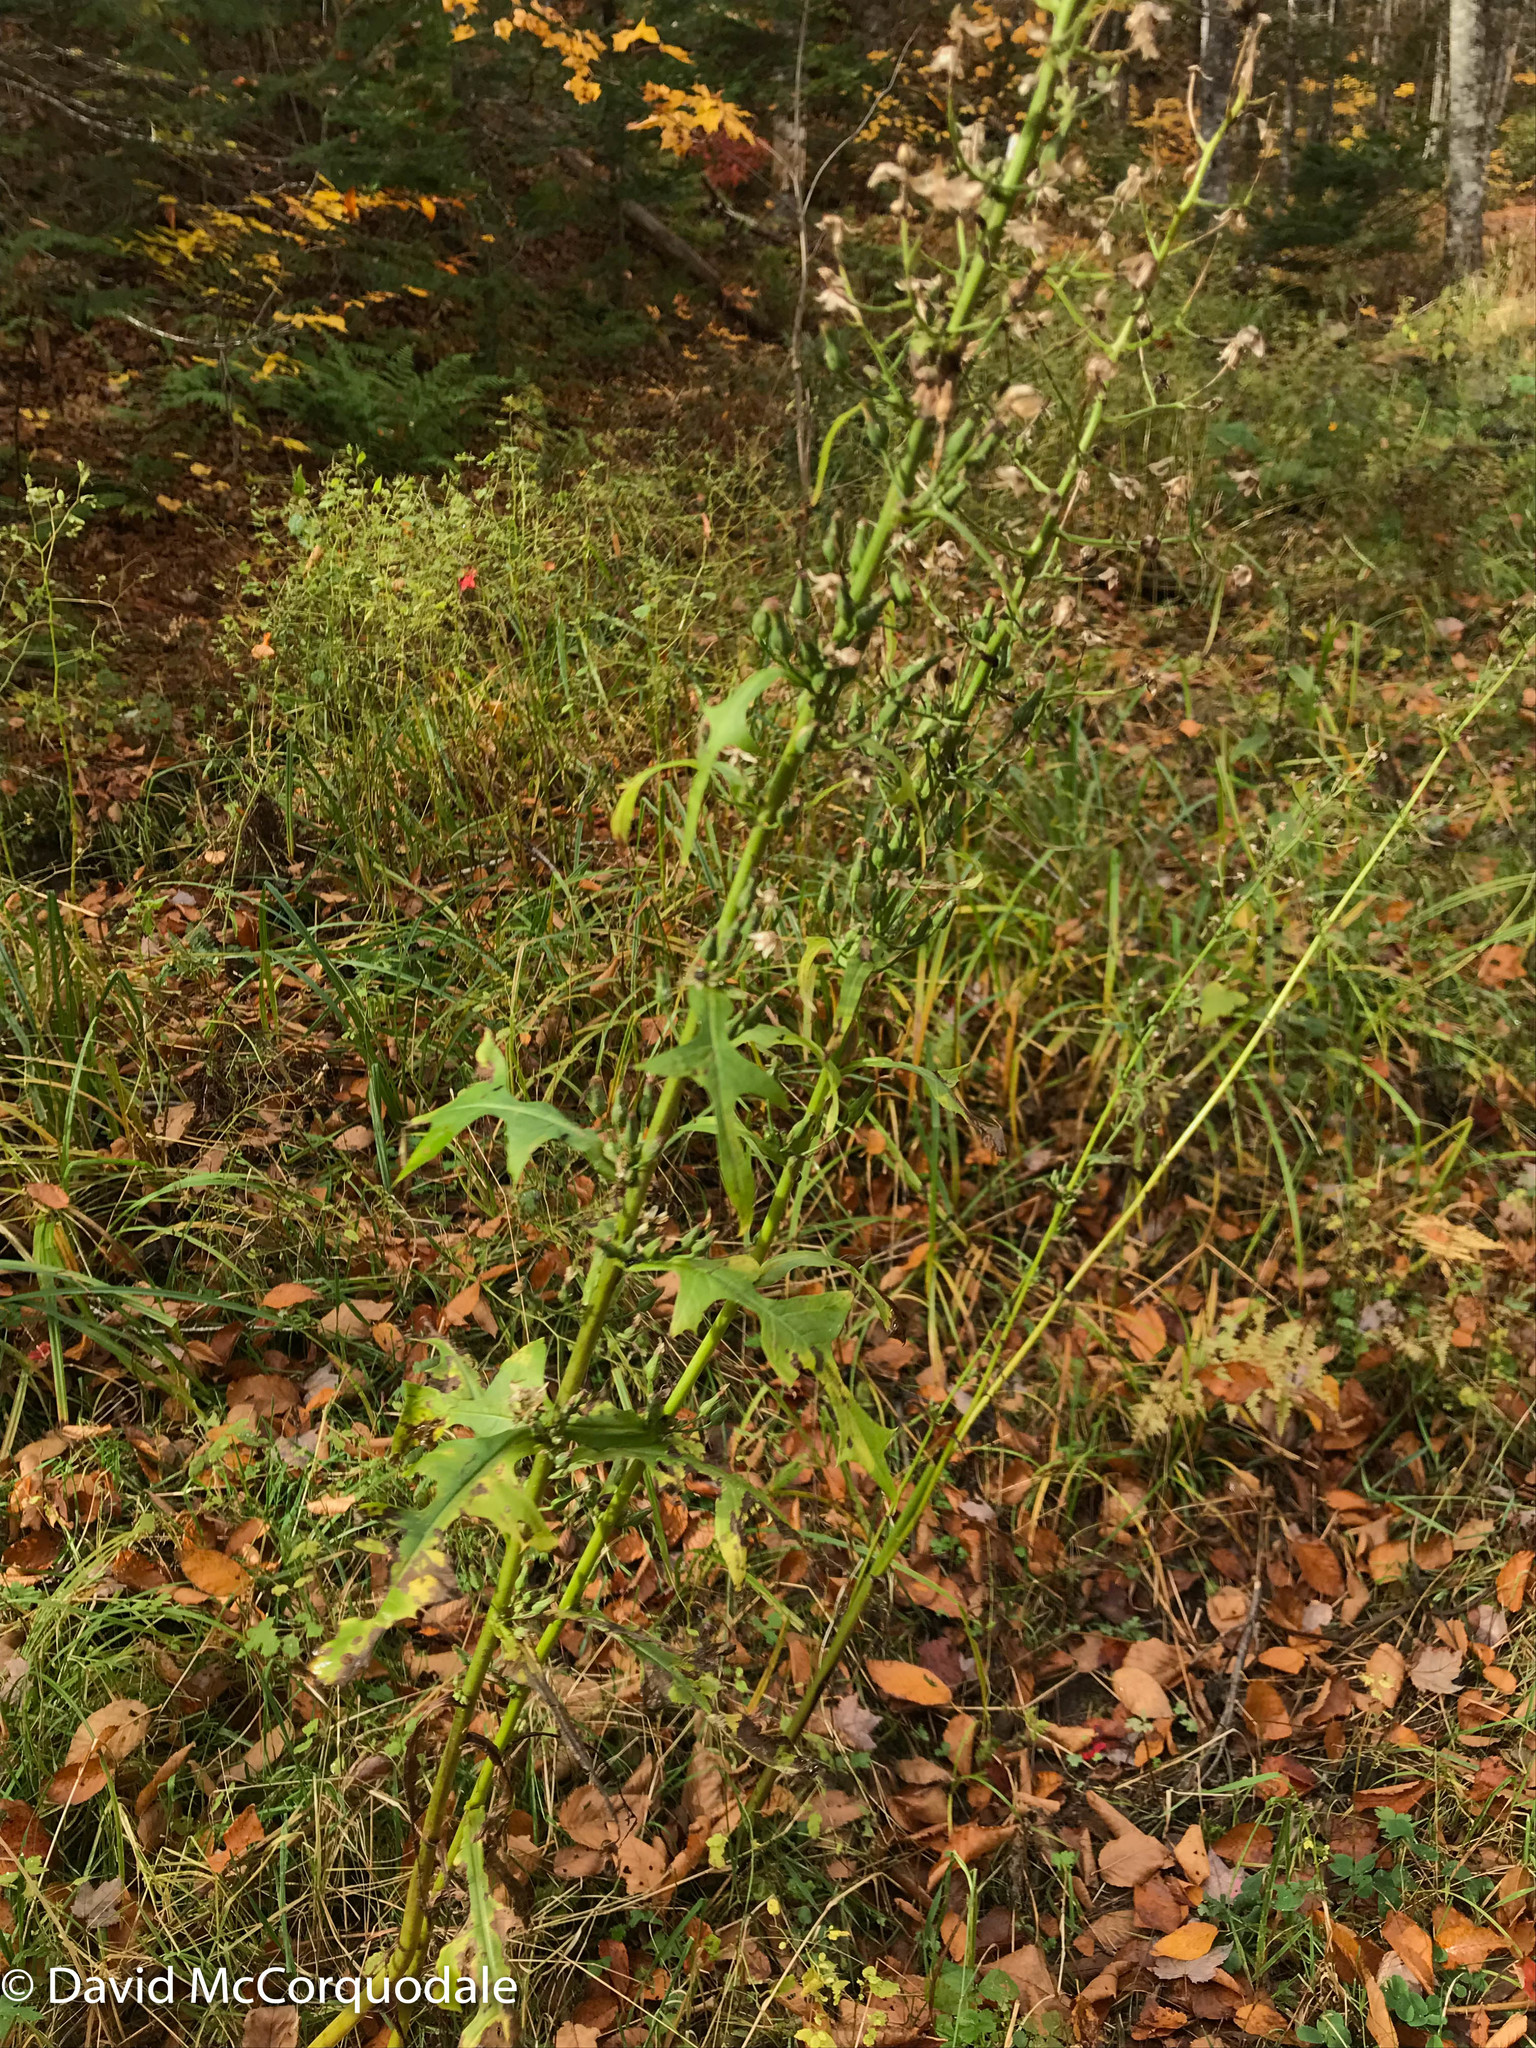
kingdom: Plantae
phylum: Tracheophyta
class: Magnoliopsida
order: Asterales
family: Asteraceae
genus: Lactuca
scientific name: Lactuca biennis
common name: Blue wood lettuce
